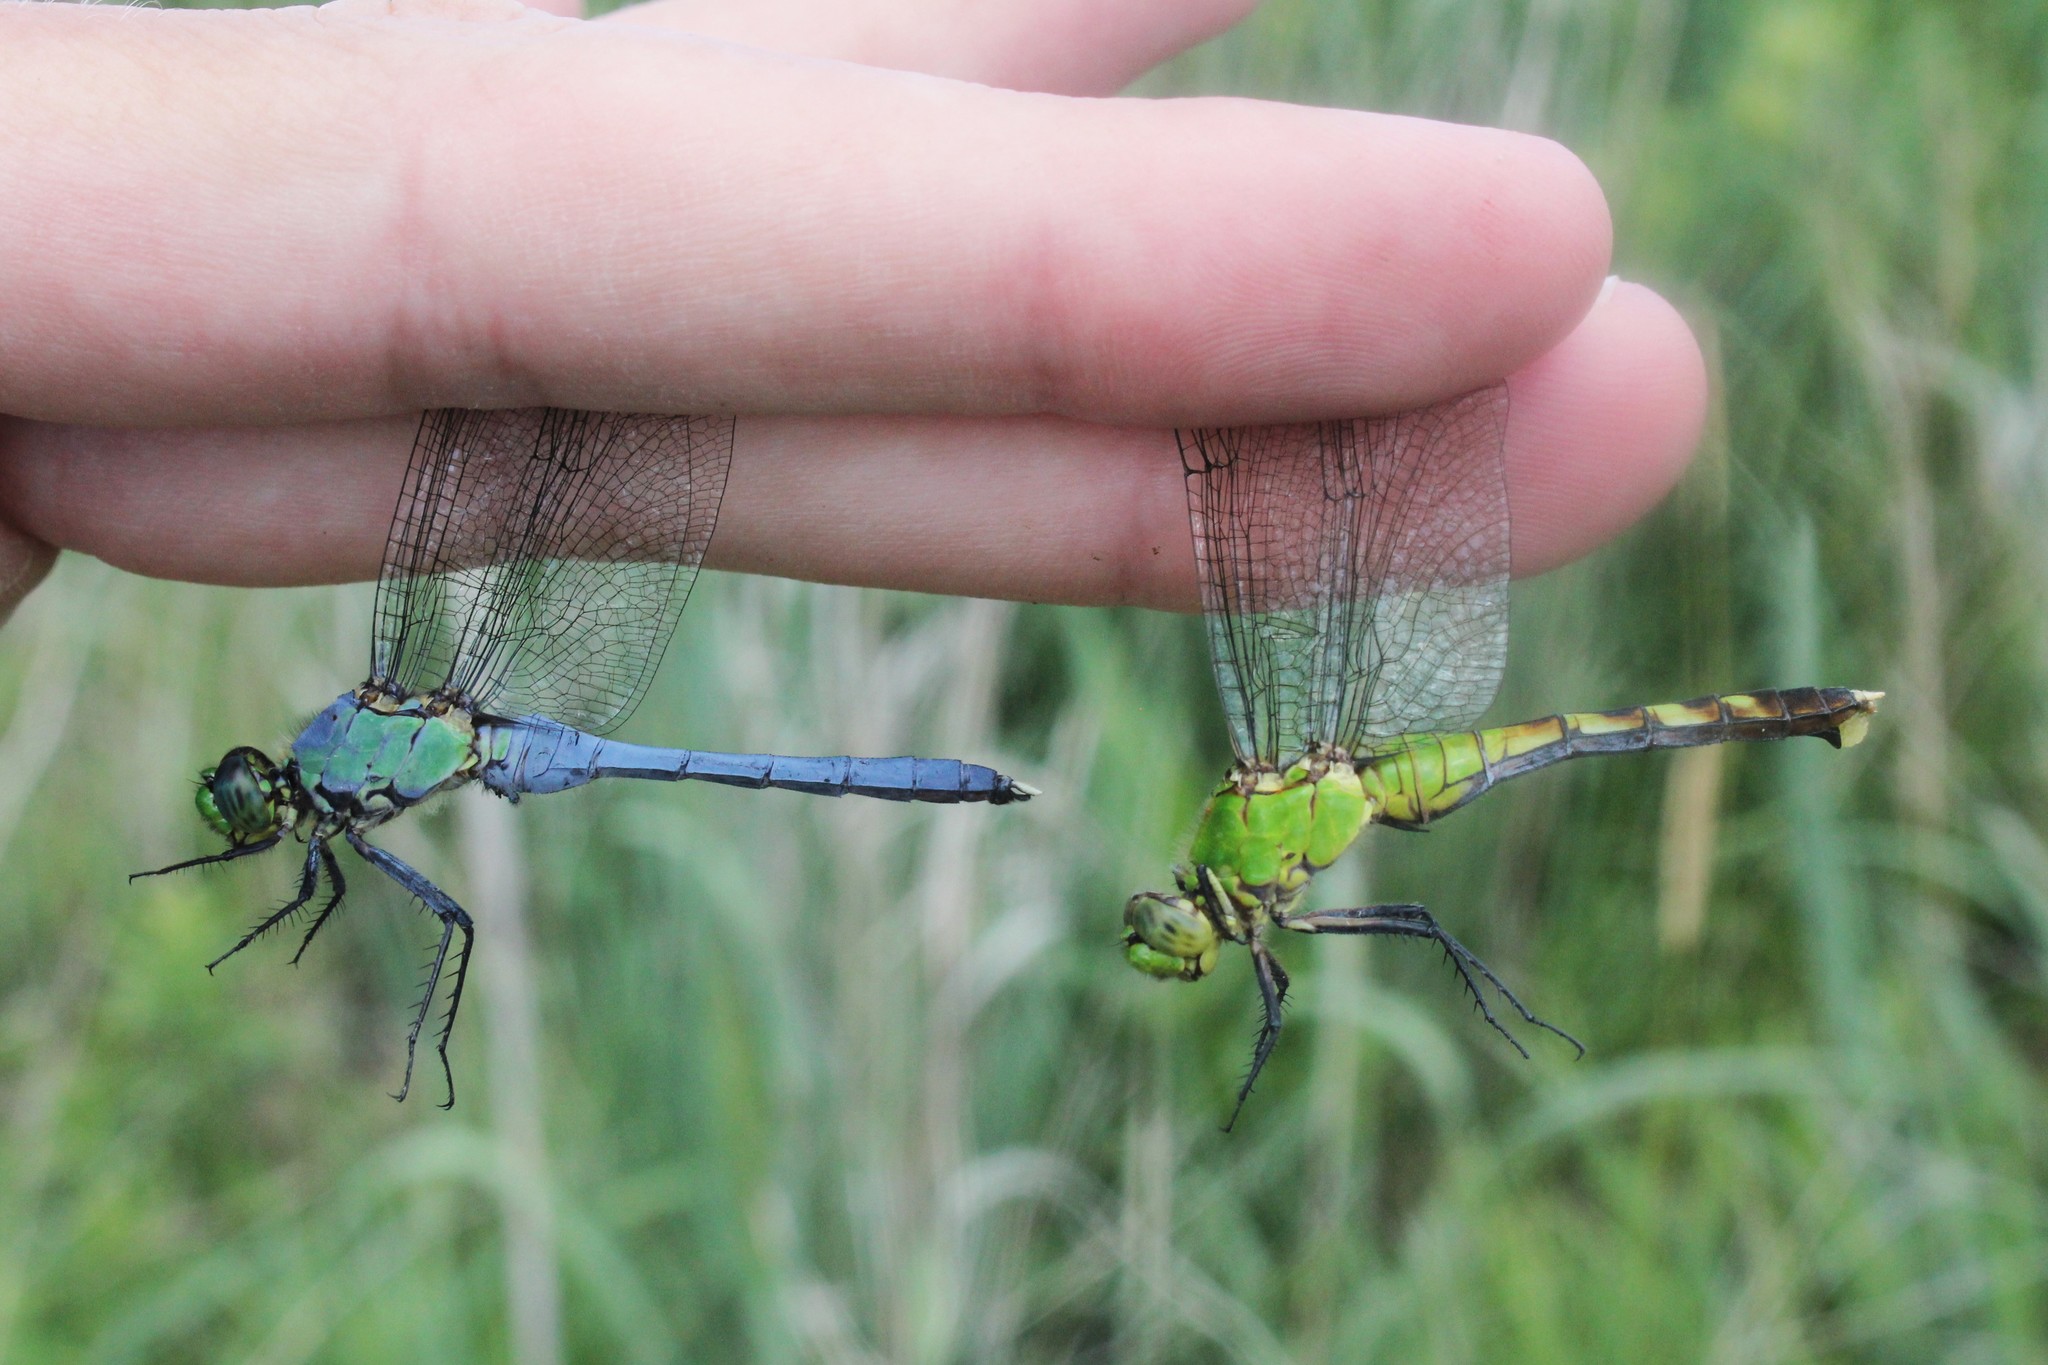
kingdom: Animalia
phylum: Arthropoda
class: Insecta
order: Odonata
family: Libellulidae
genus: Erythemis
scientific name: Erythemis simplicicollis
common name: Eastern pondhawk
